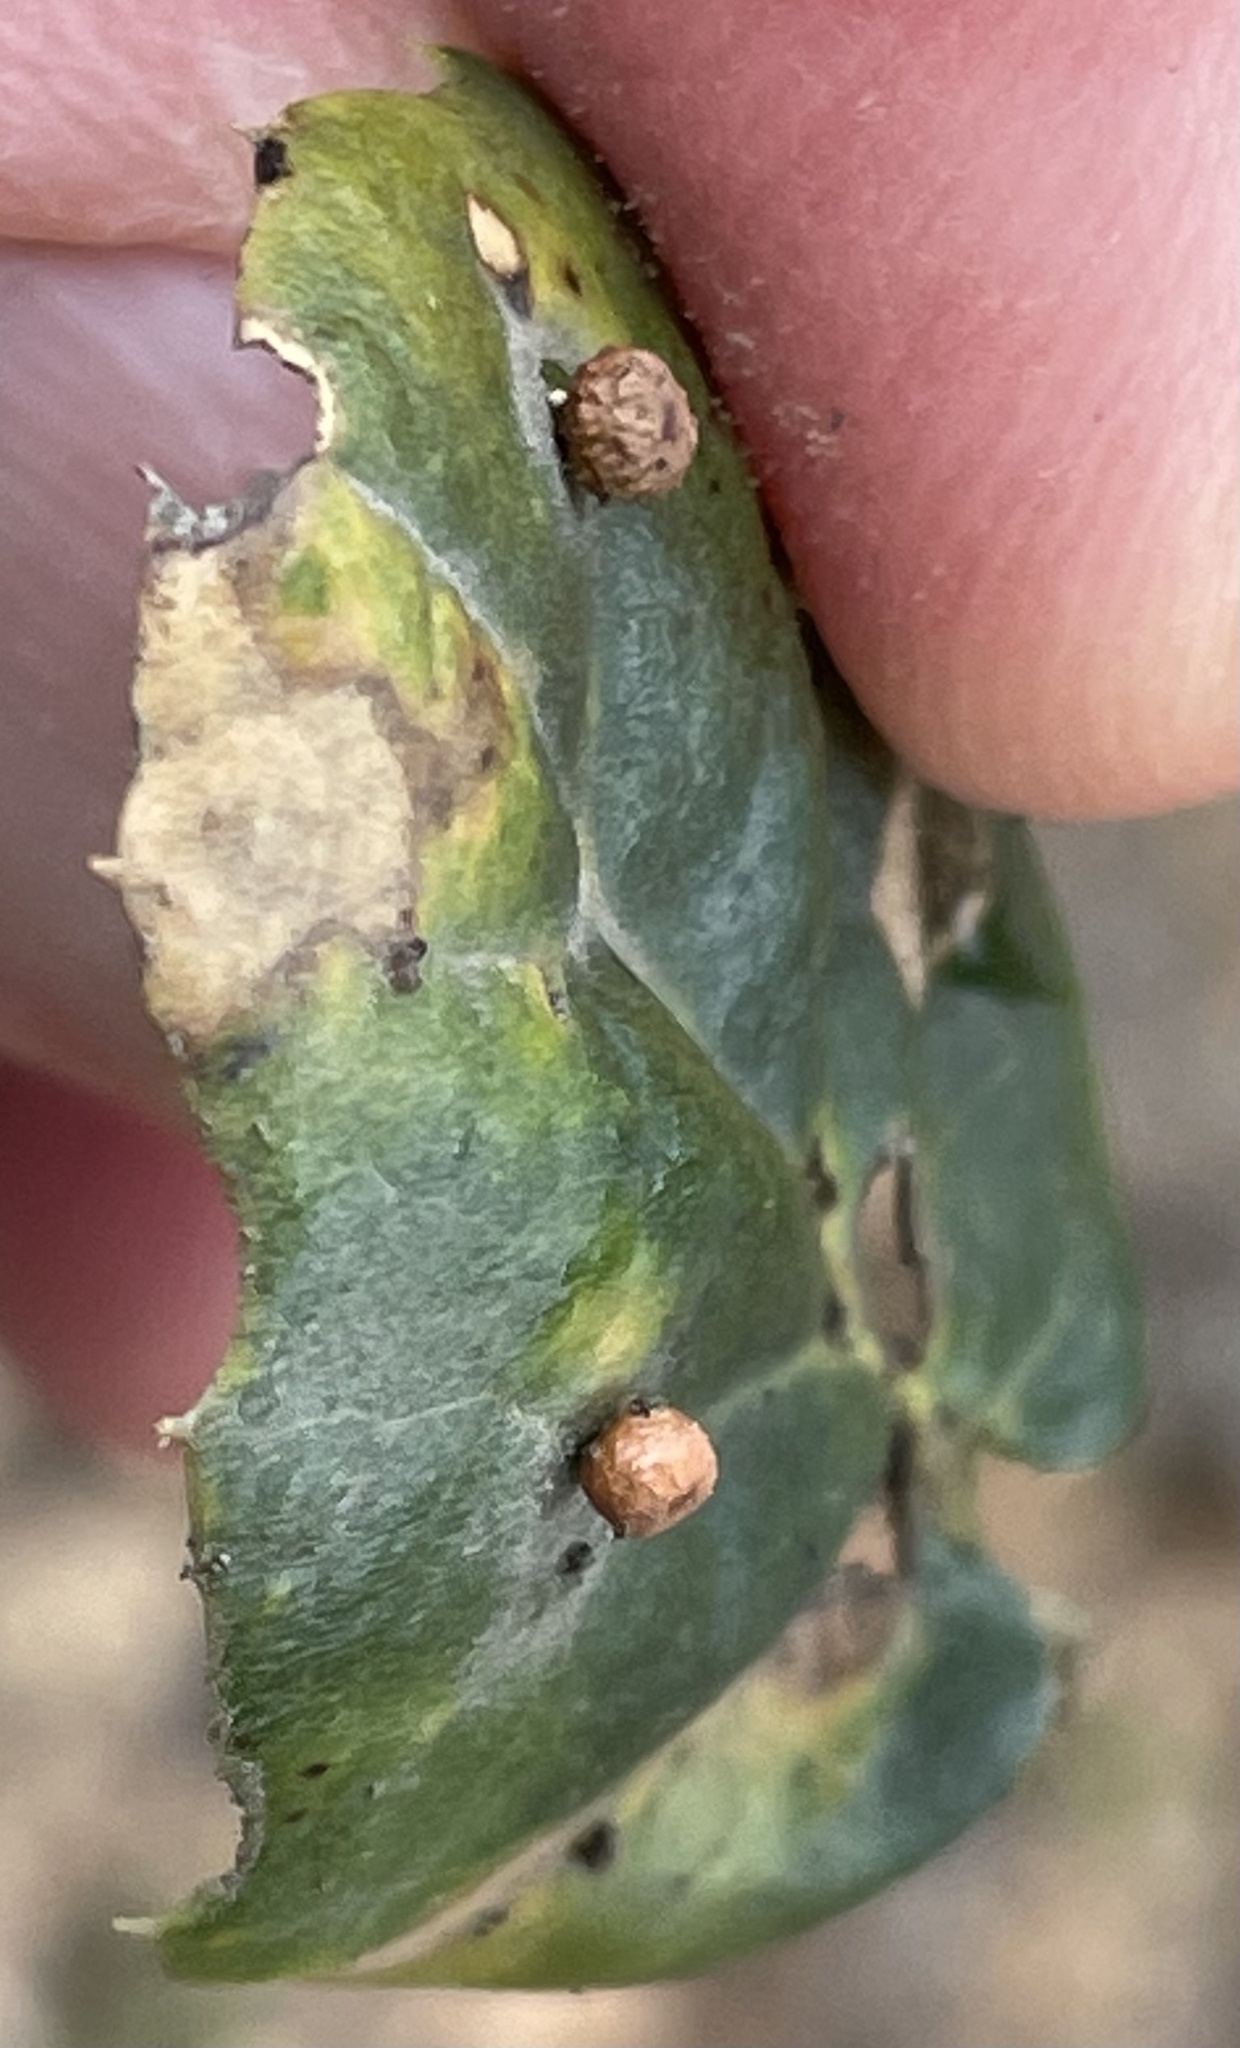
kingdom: Animalia
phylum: Arthropoda
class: Insecta
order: Hymenoptera
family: Cynipidae
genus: Dryocosmus
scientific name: Dryocosmus
